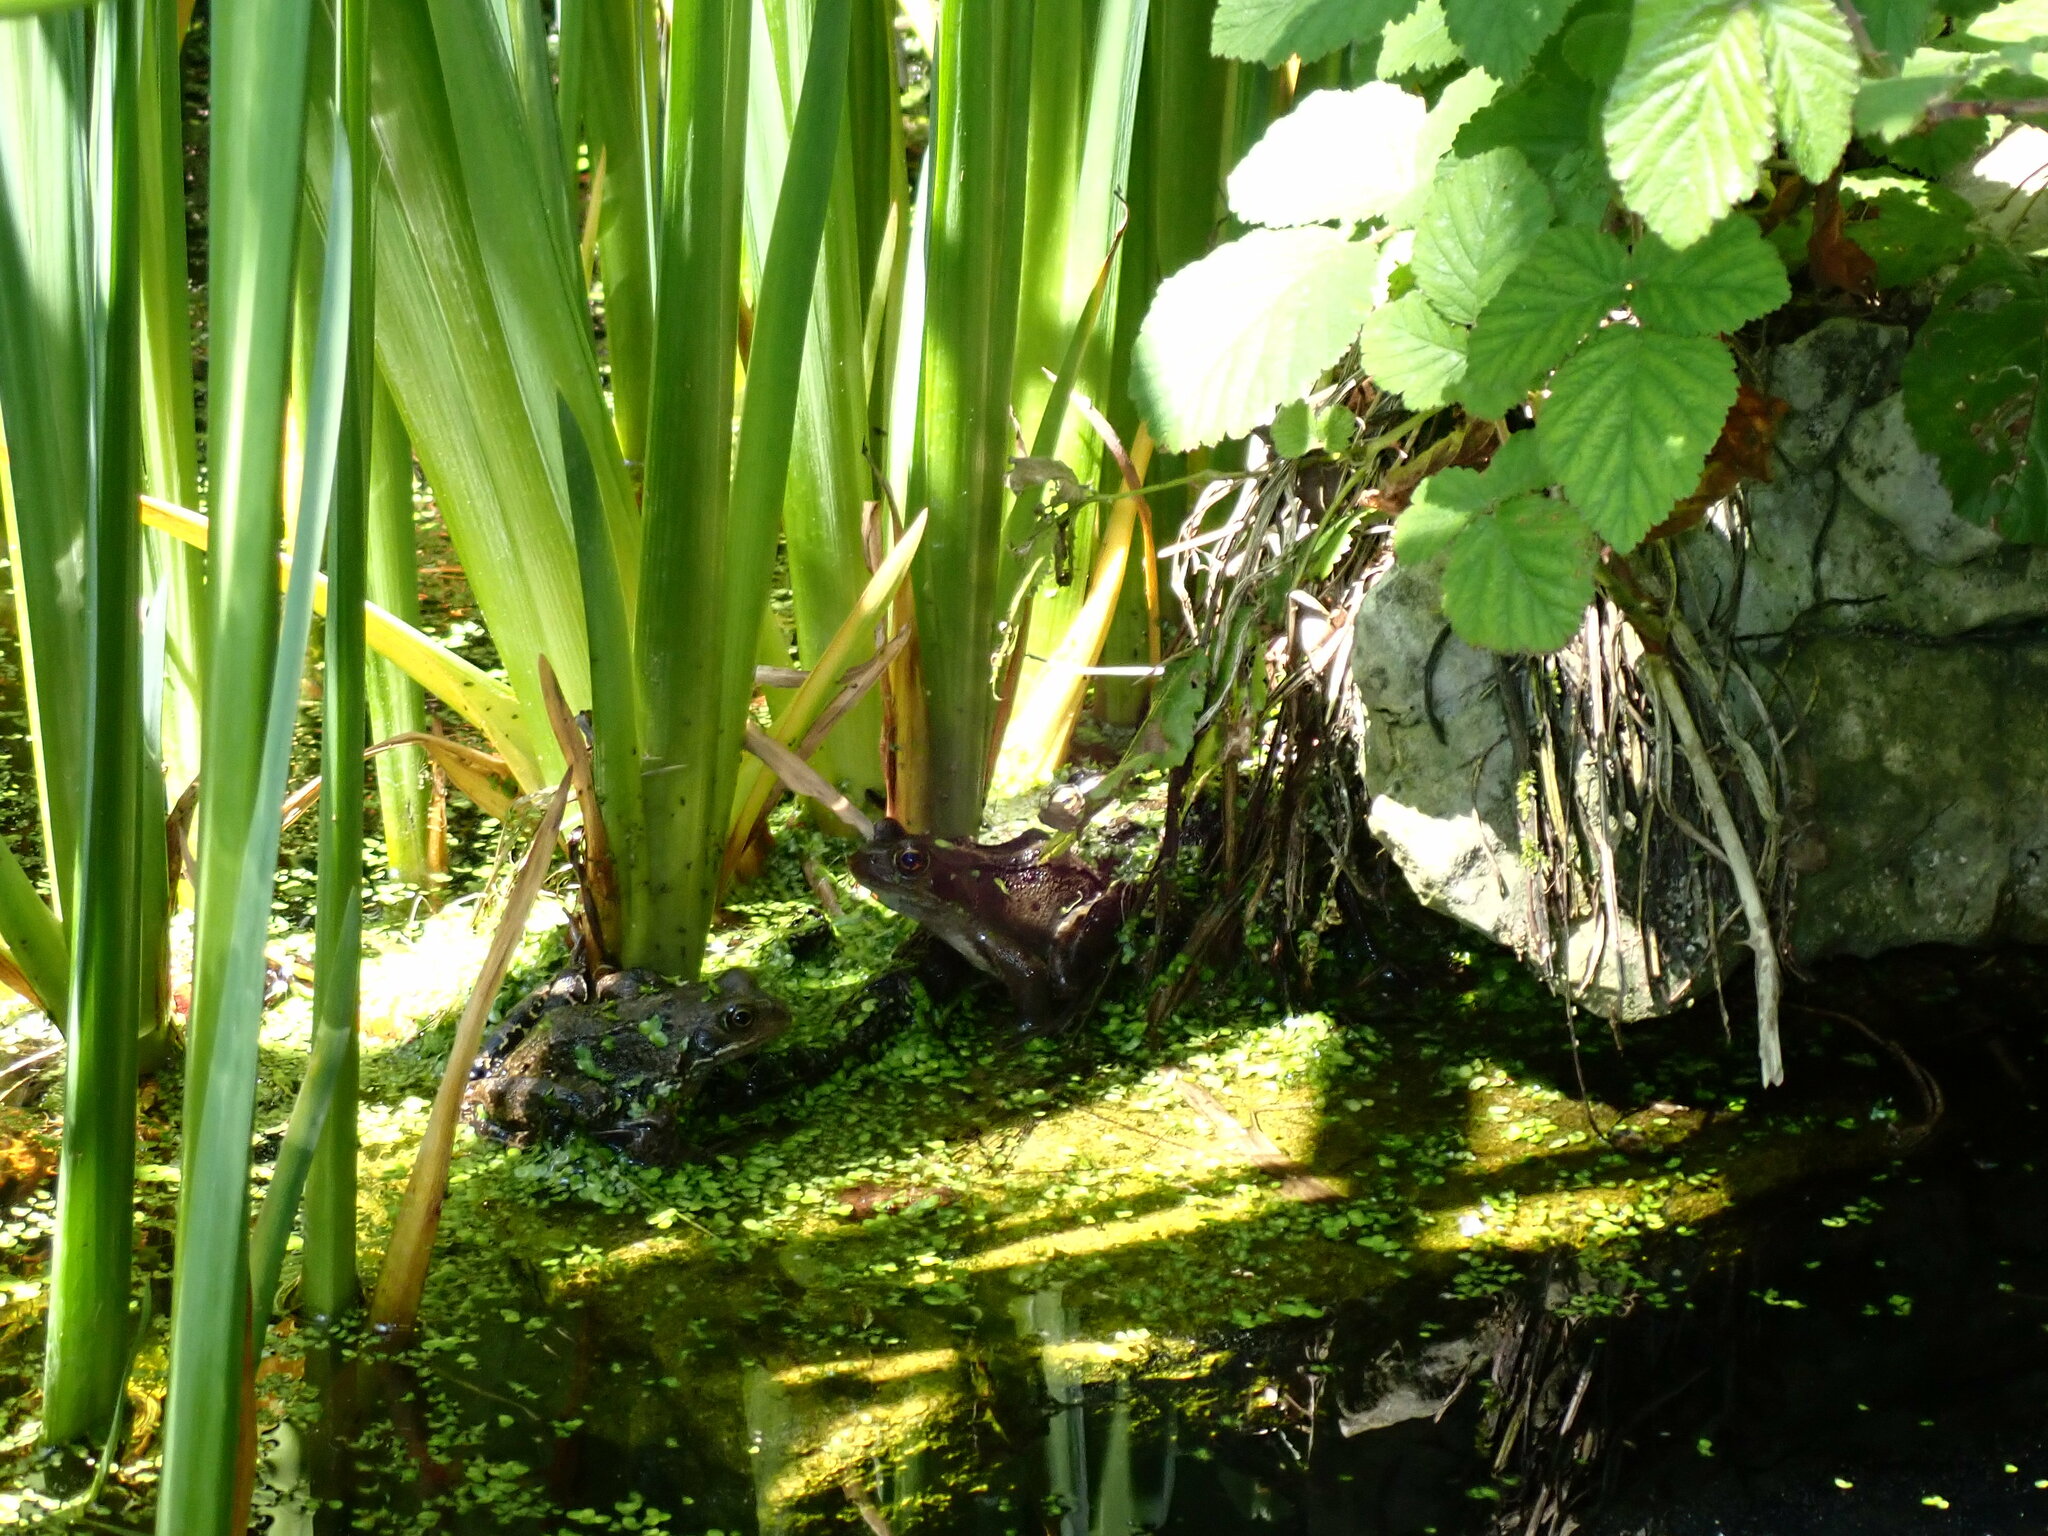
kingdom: Animalia
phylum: Chordata
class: Amphibia
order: Anura
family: Ranidae
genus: Rana
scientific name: Rana temporaria
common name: Common frog
